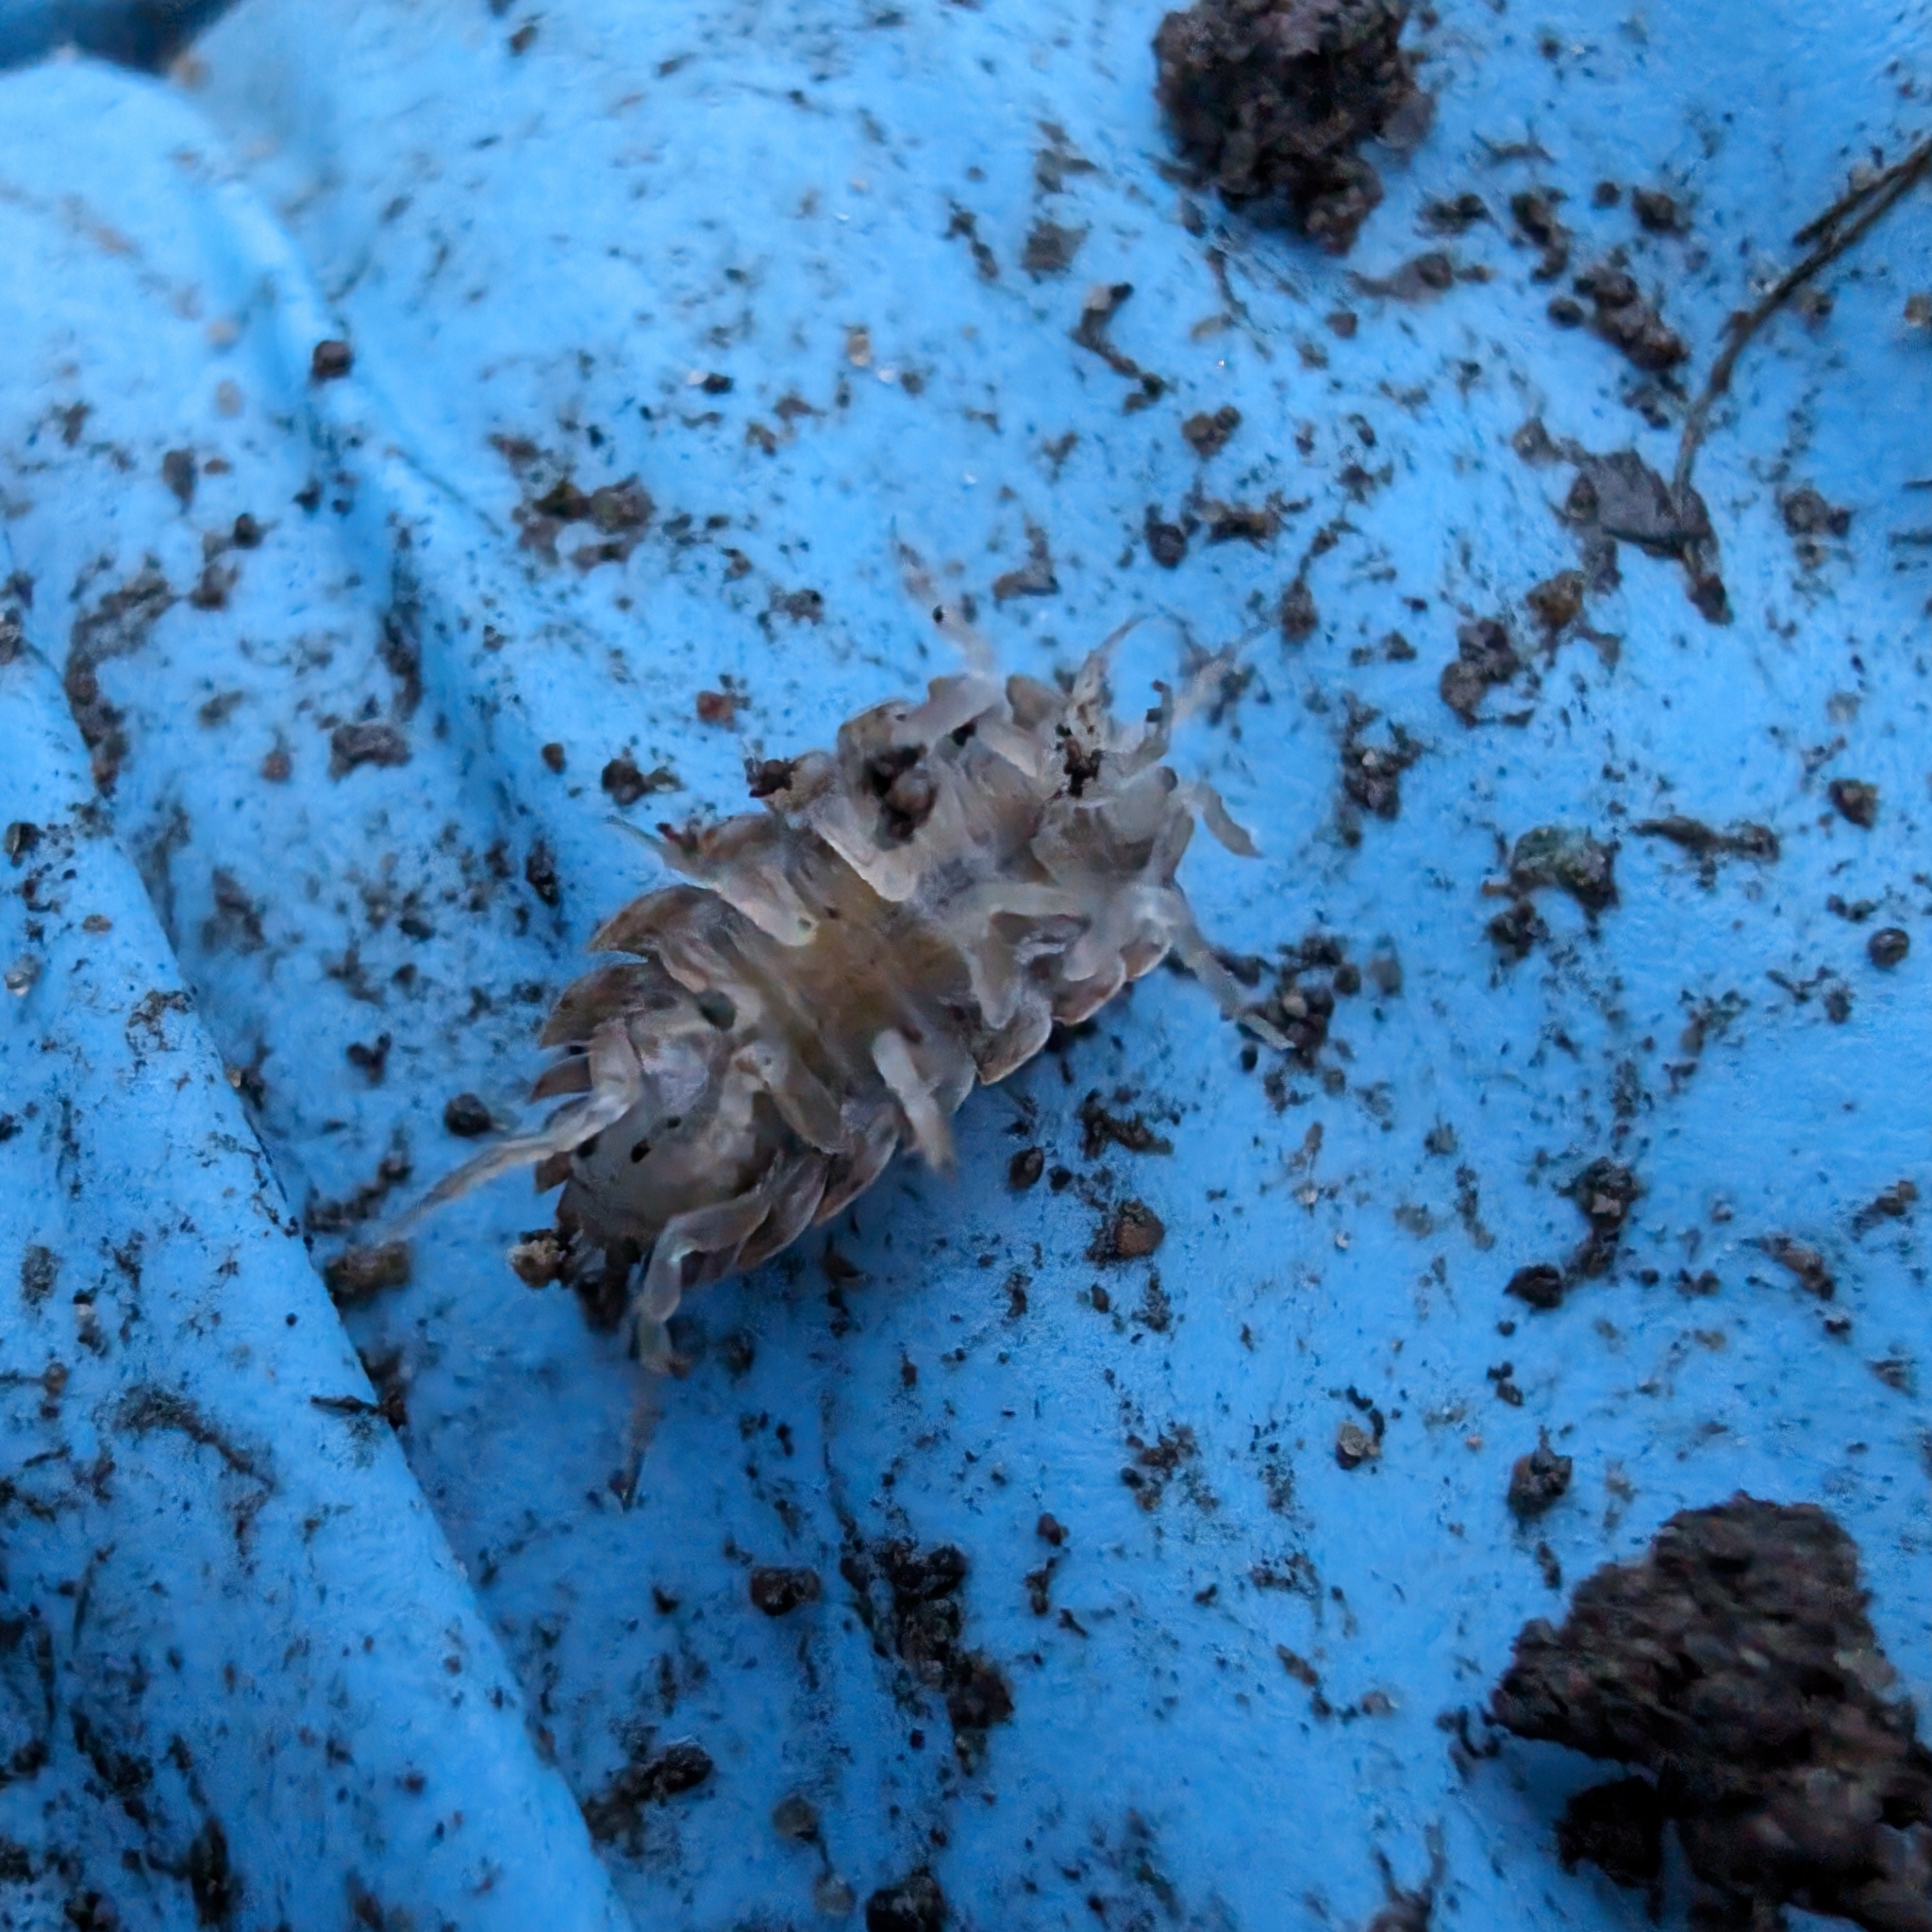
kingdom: Animalia
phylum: Arthropoda
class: Malacostraca
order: Isopoda
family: Trachelipodidae
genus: Trachelipus
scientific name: Trachelipus rathkii
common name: Isopod
